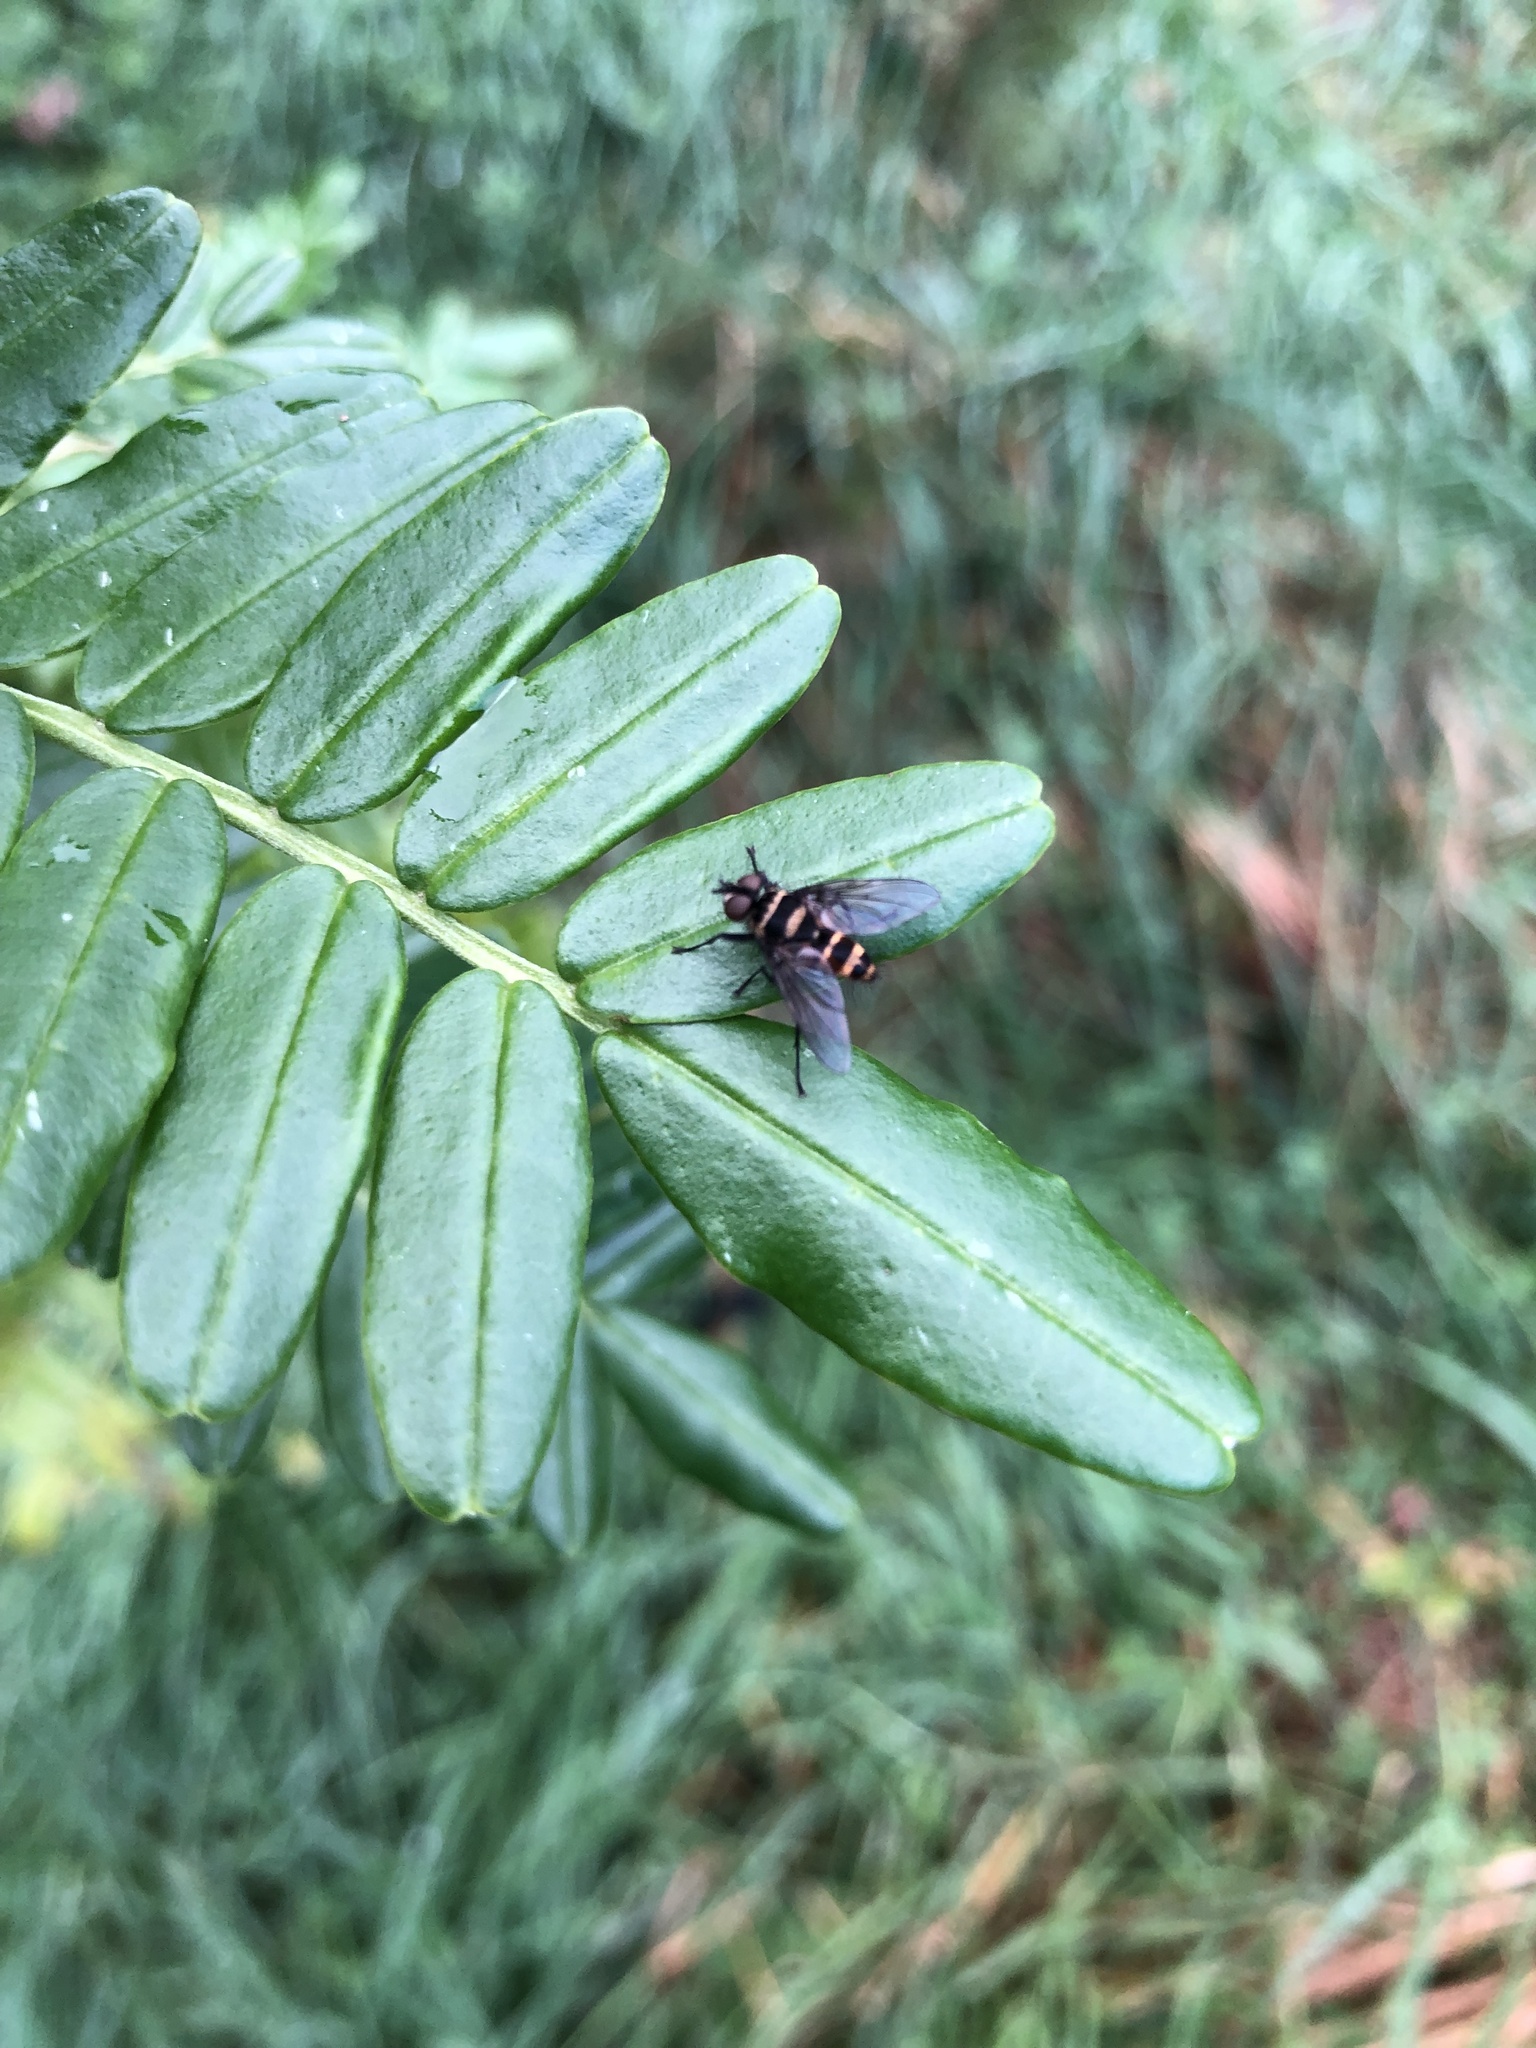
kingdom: Animalia
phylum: Arthropoda
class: Insecta
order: Diptera
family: Tachinidae
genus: Trigonospila
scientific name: Trigonospila brevifacies
